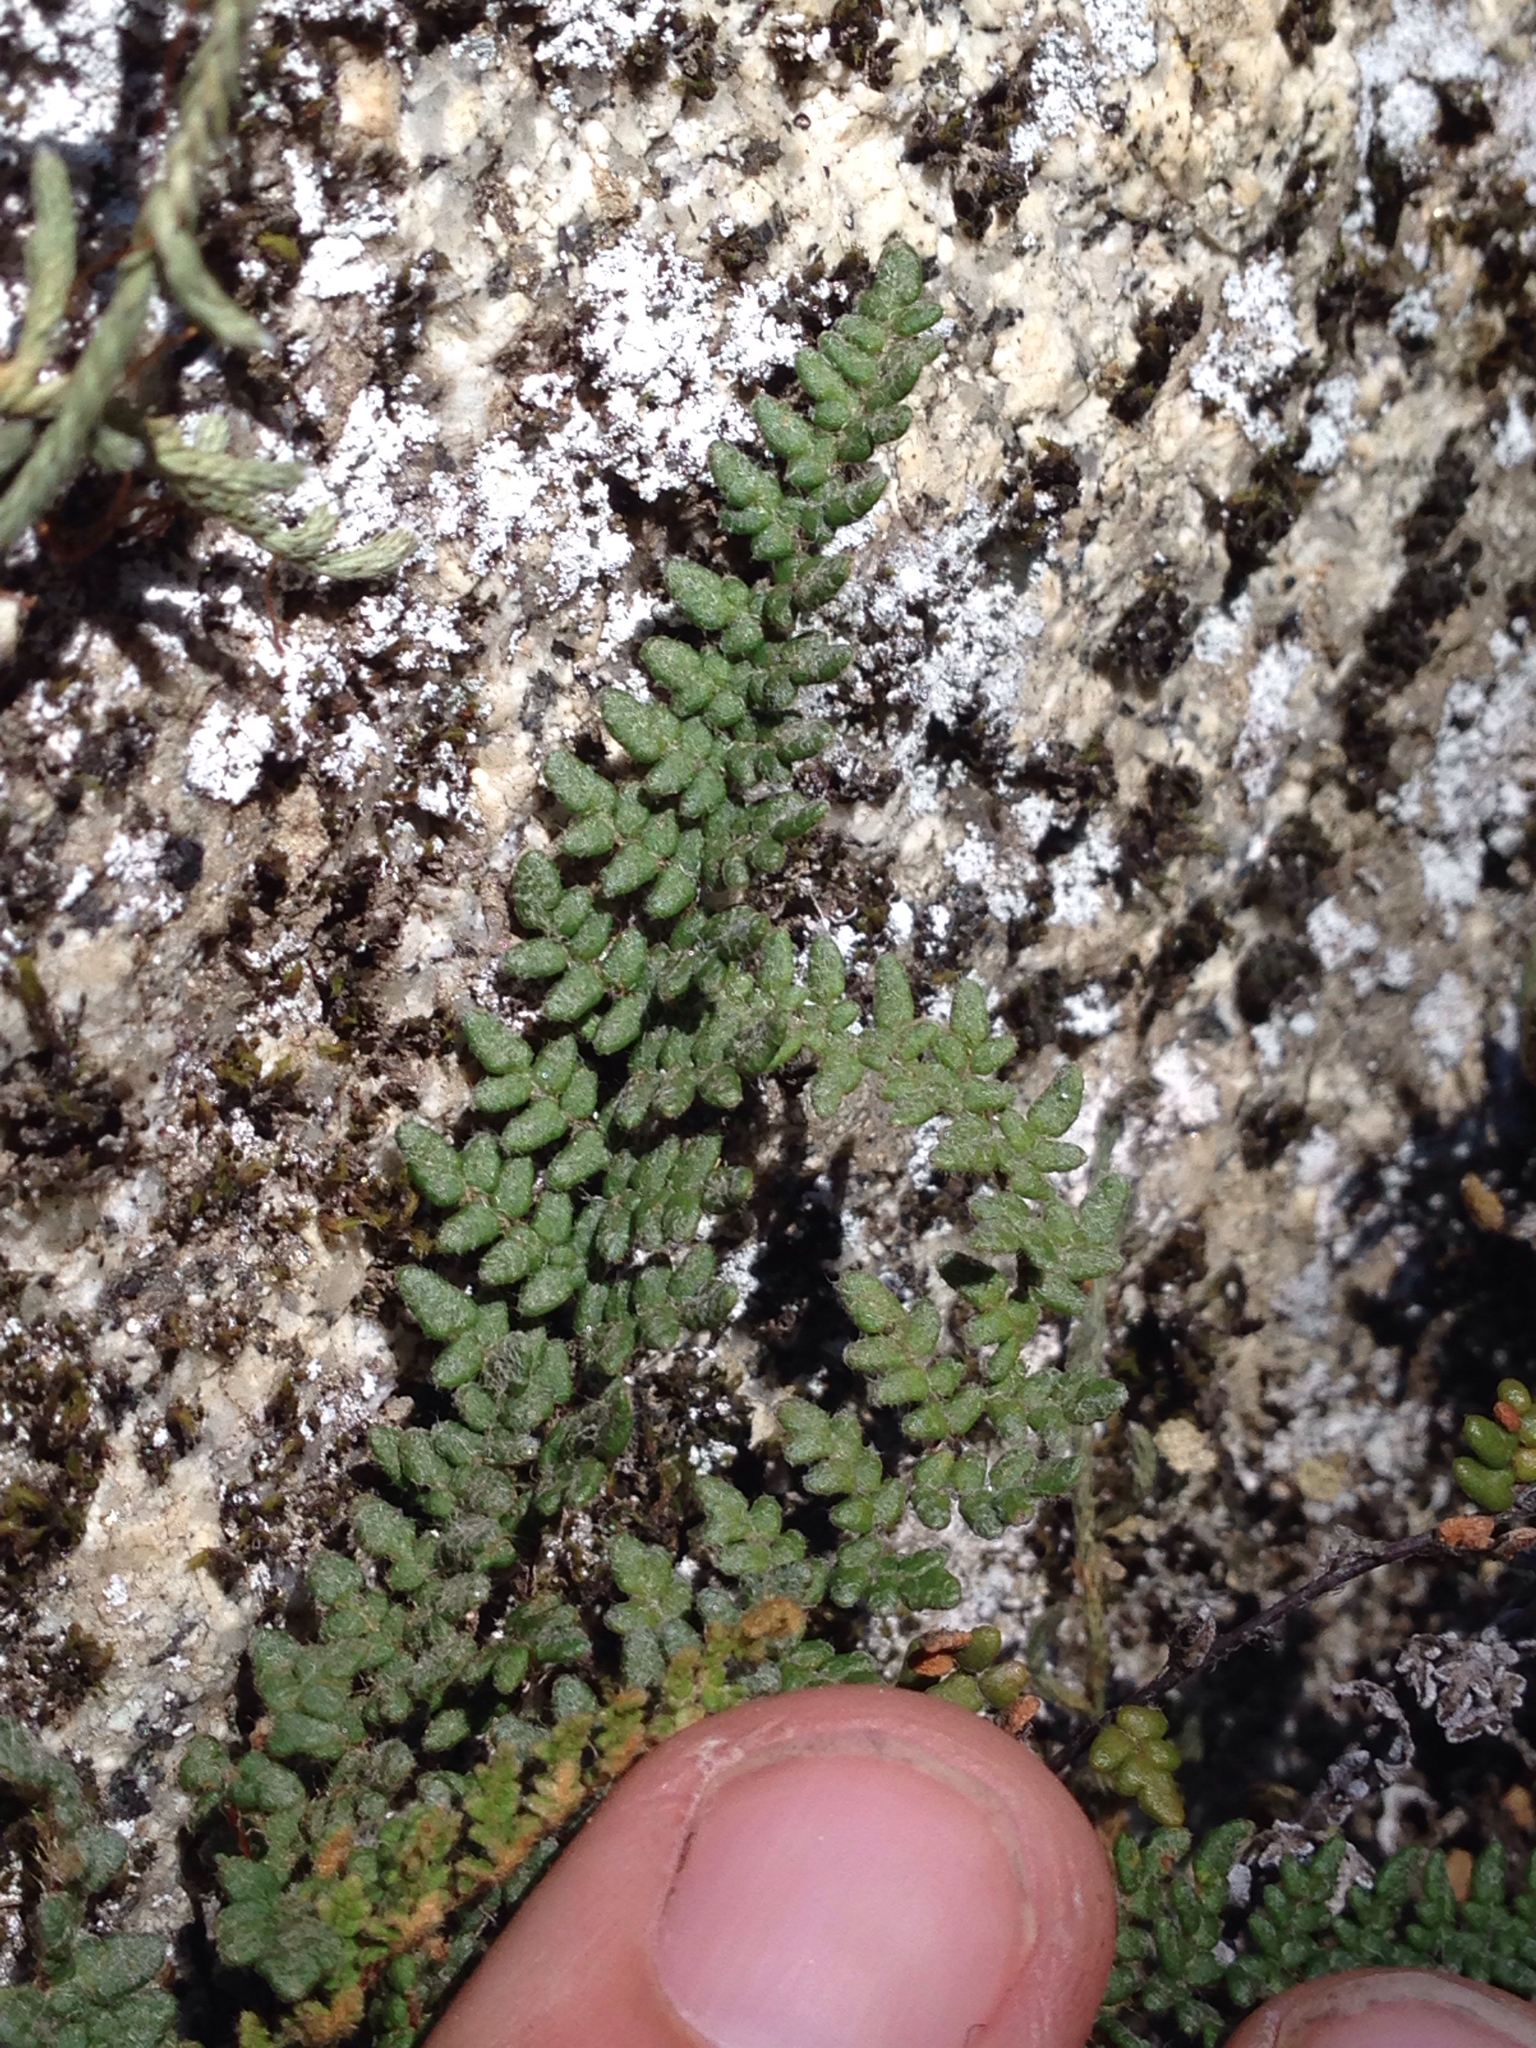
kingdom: Plantae
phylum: Tracheophyta
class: Polypodiopsida
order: Polypodiales
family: Pteridaceae
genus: Myriopteris
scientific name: Myriopteris gracillima
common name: Lace fern
